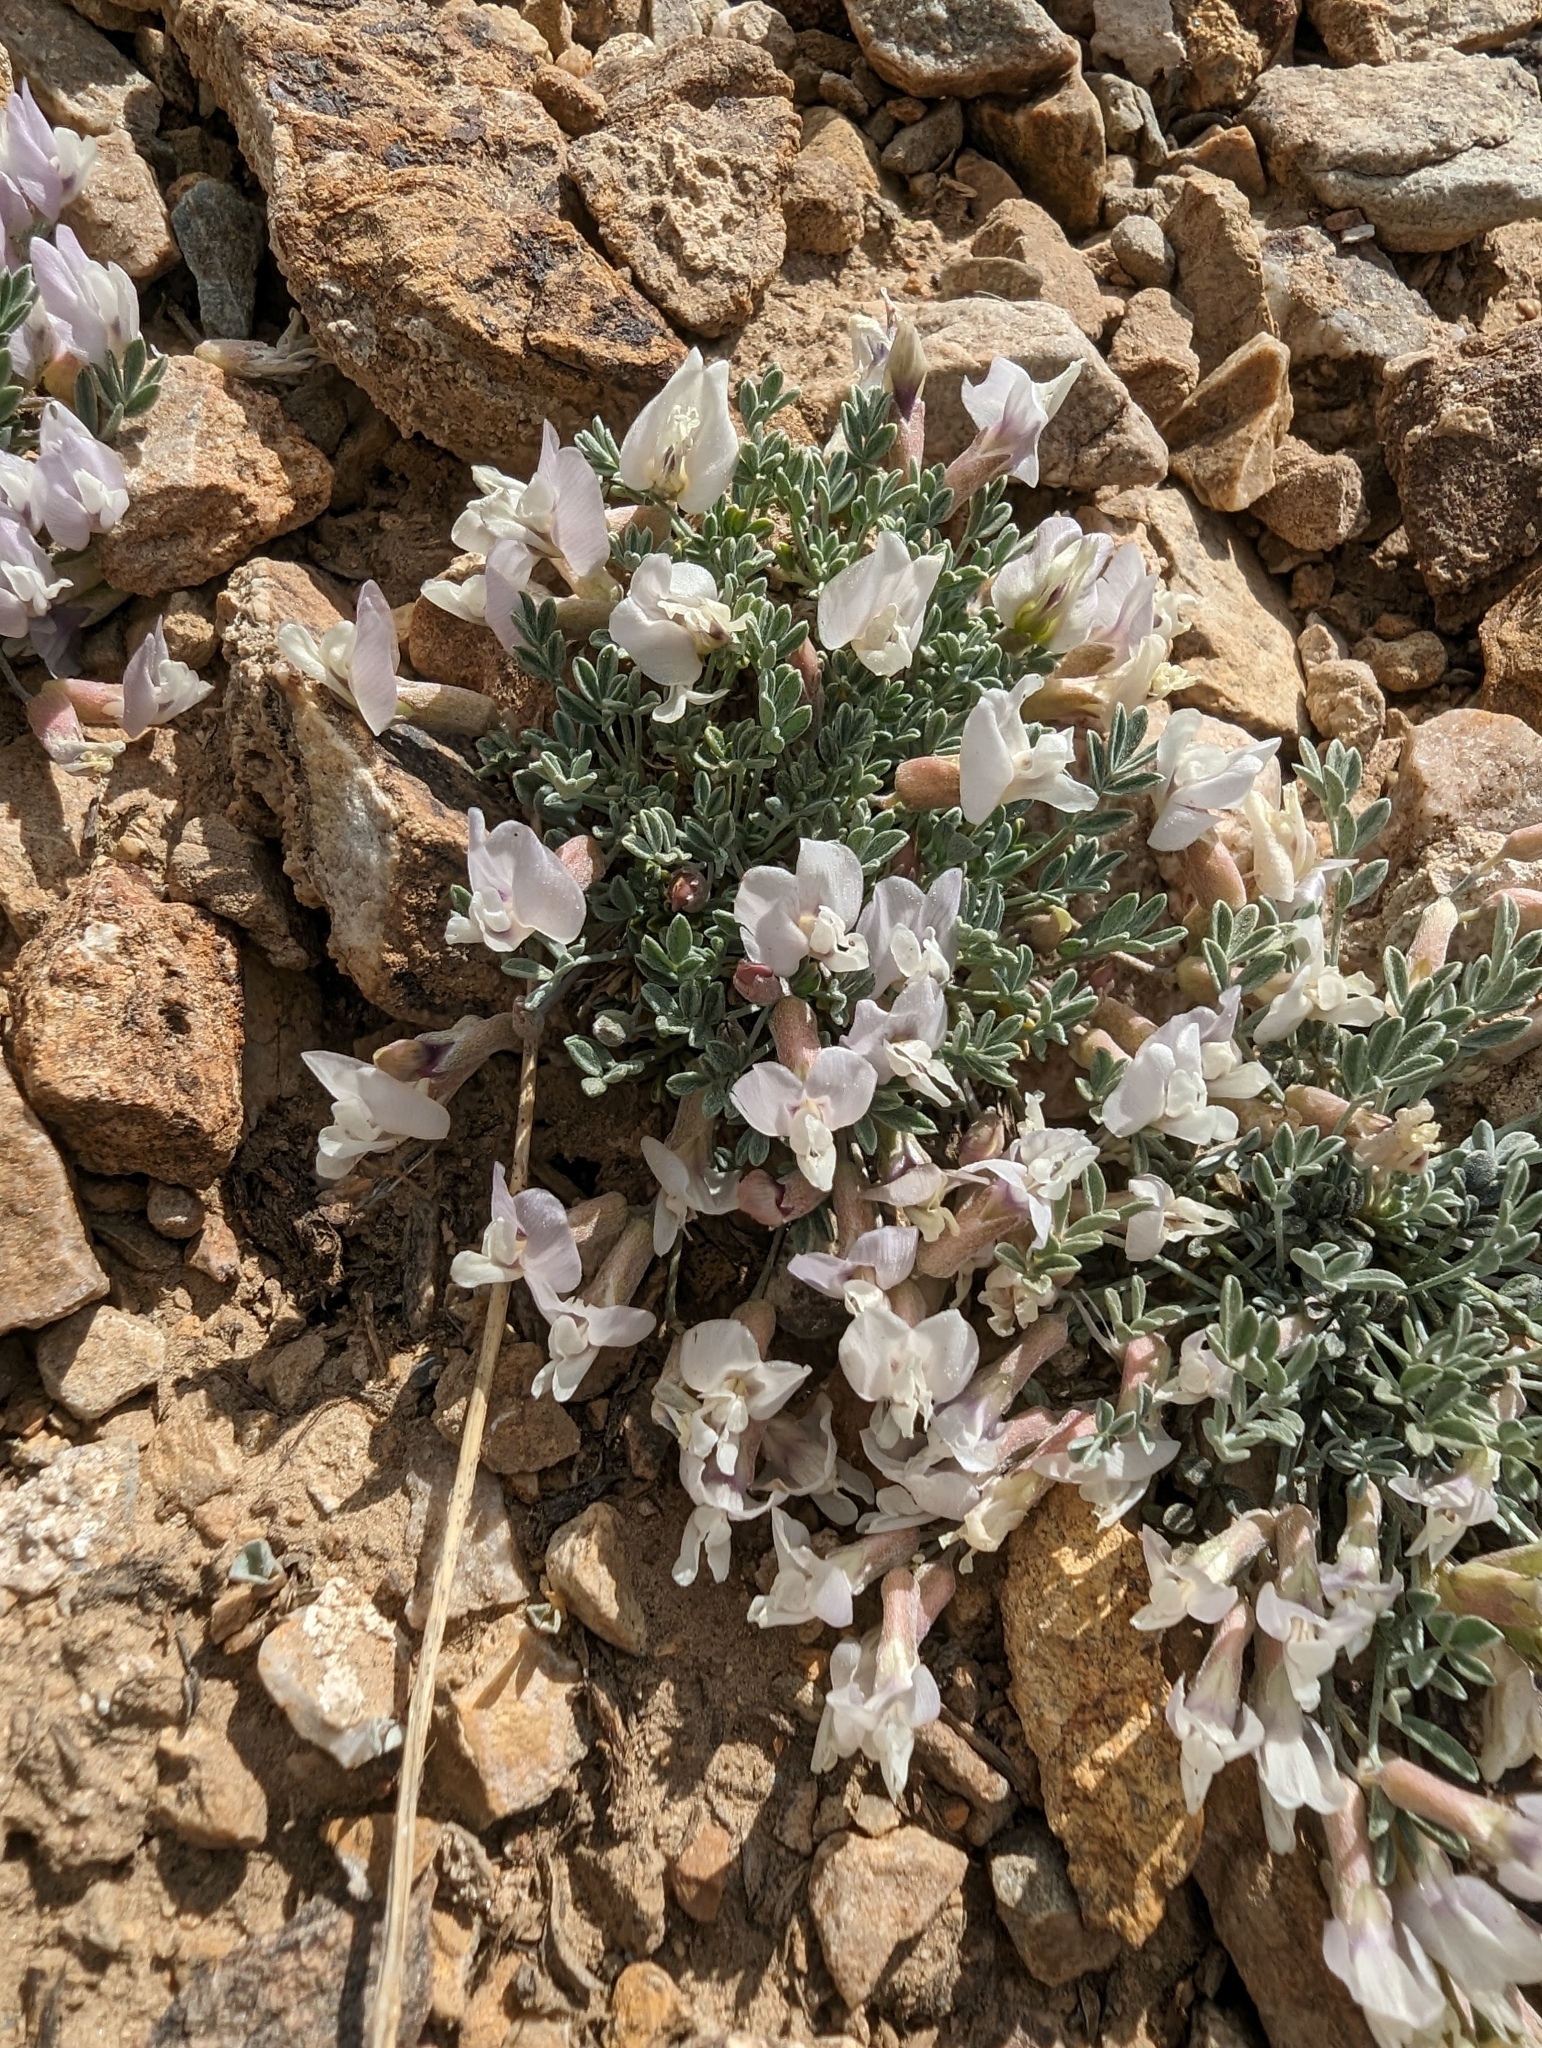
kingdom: Plantae
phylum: Tracheophyta
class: Magnoliopsida
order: Fabales
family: Fabaceae
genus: Astragalus
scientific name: Astragalus calycosus
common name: King's milkvetch
